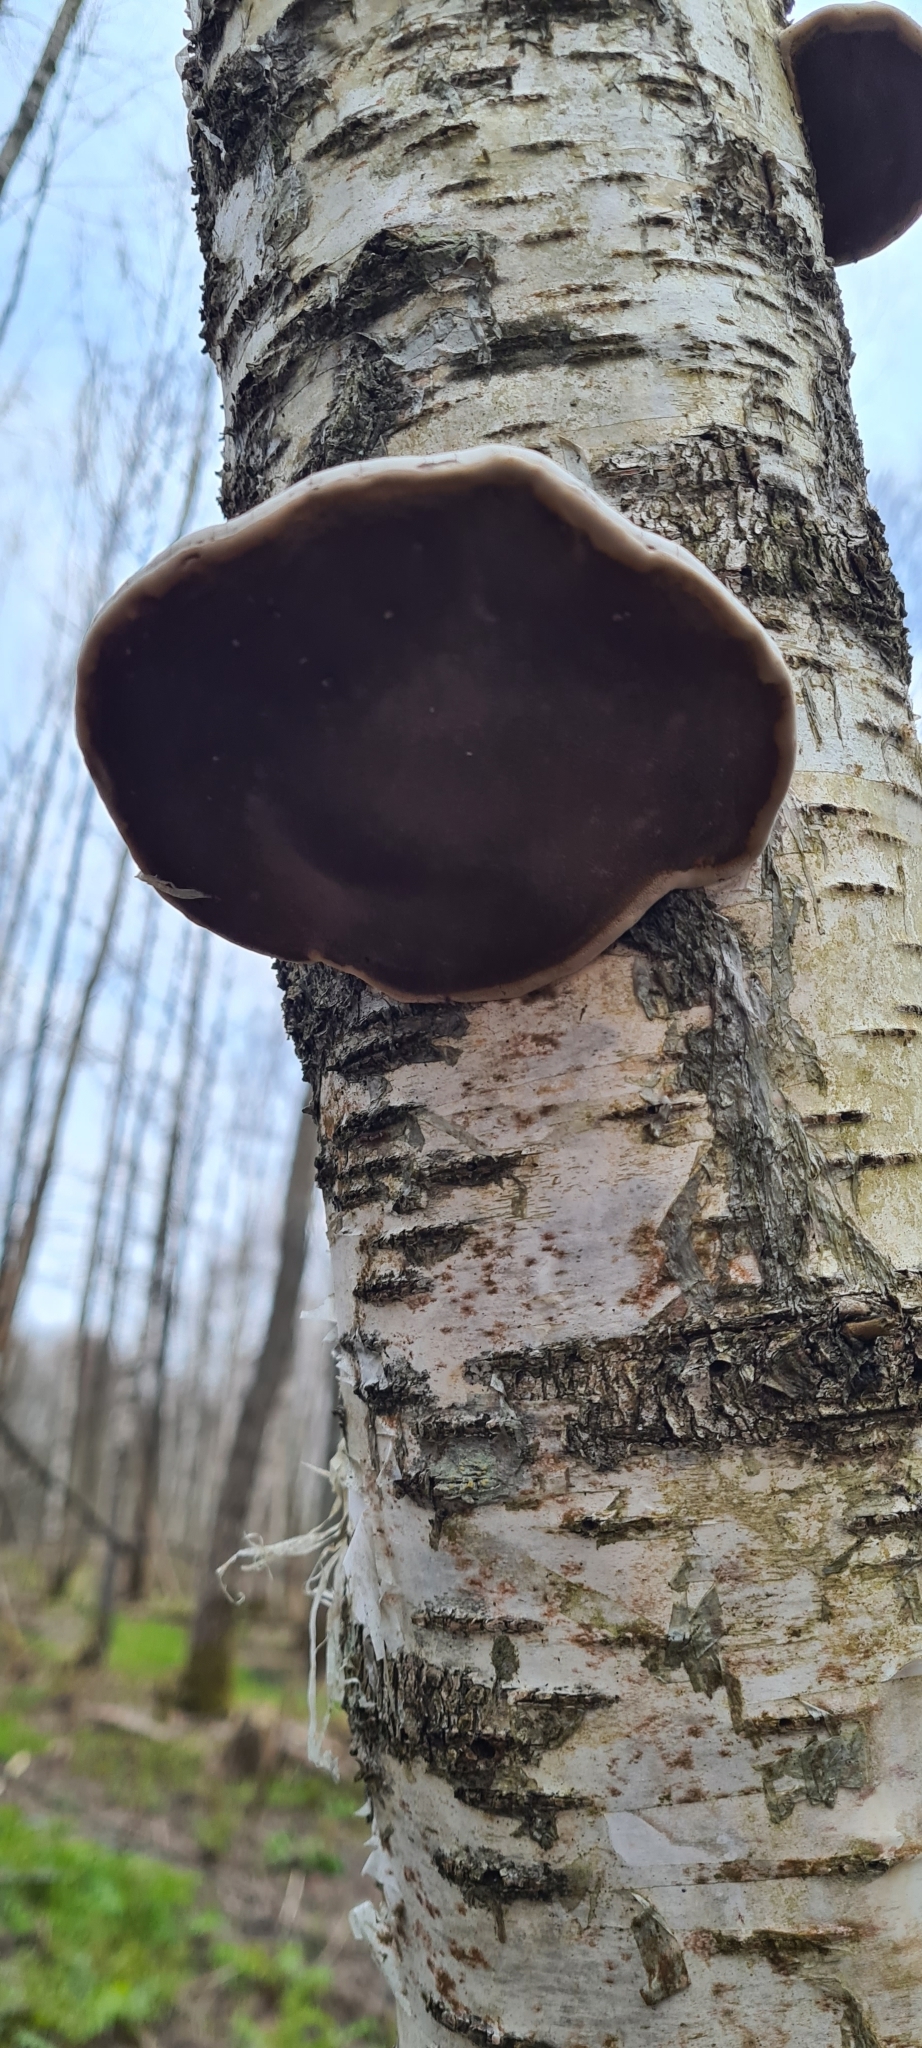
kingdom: Fungi
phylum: Basidiomycota
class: Agaricomycetes
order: Polyporales
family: Polyporaceae
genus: Fomes
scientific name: Fomes fomentarius
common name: Hoof fungus
